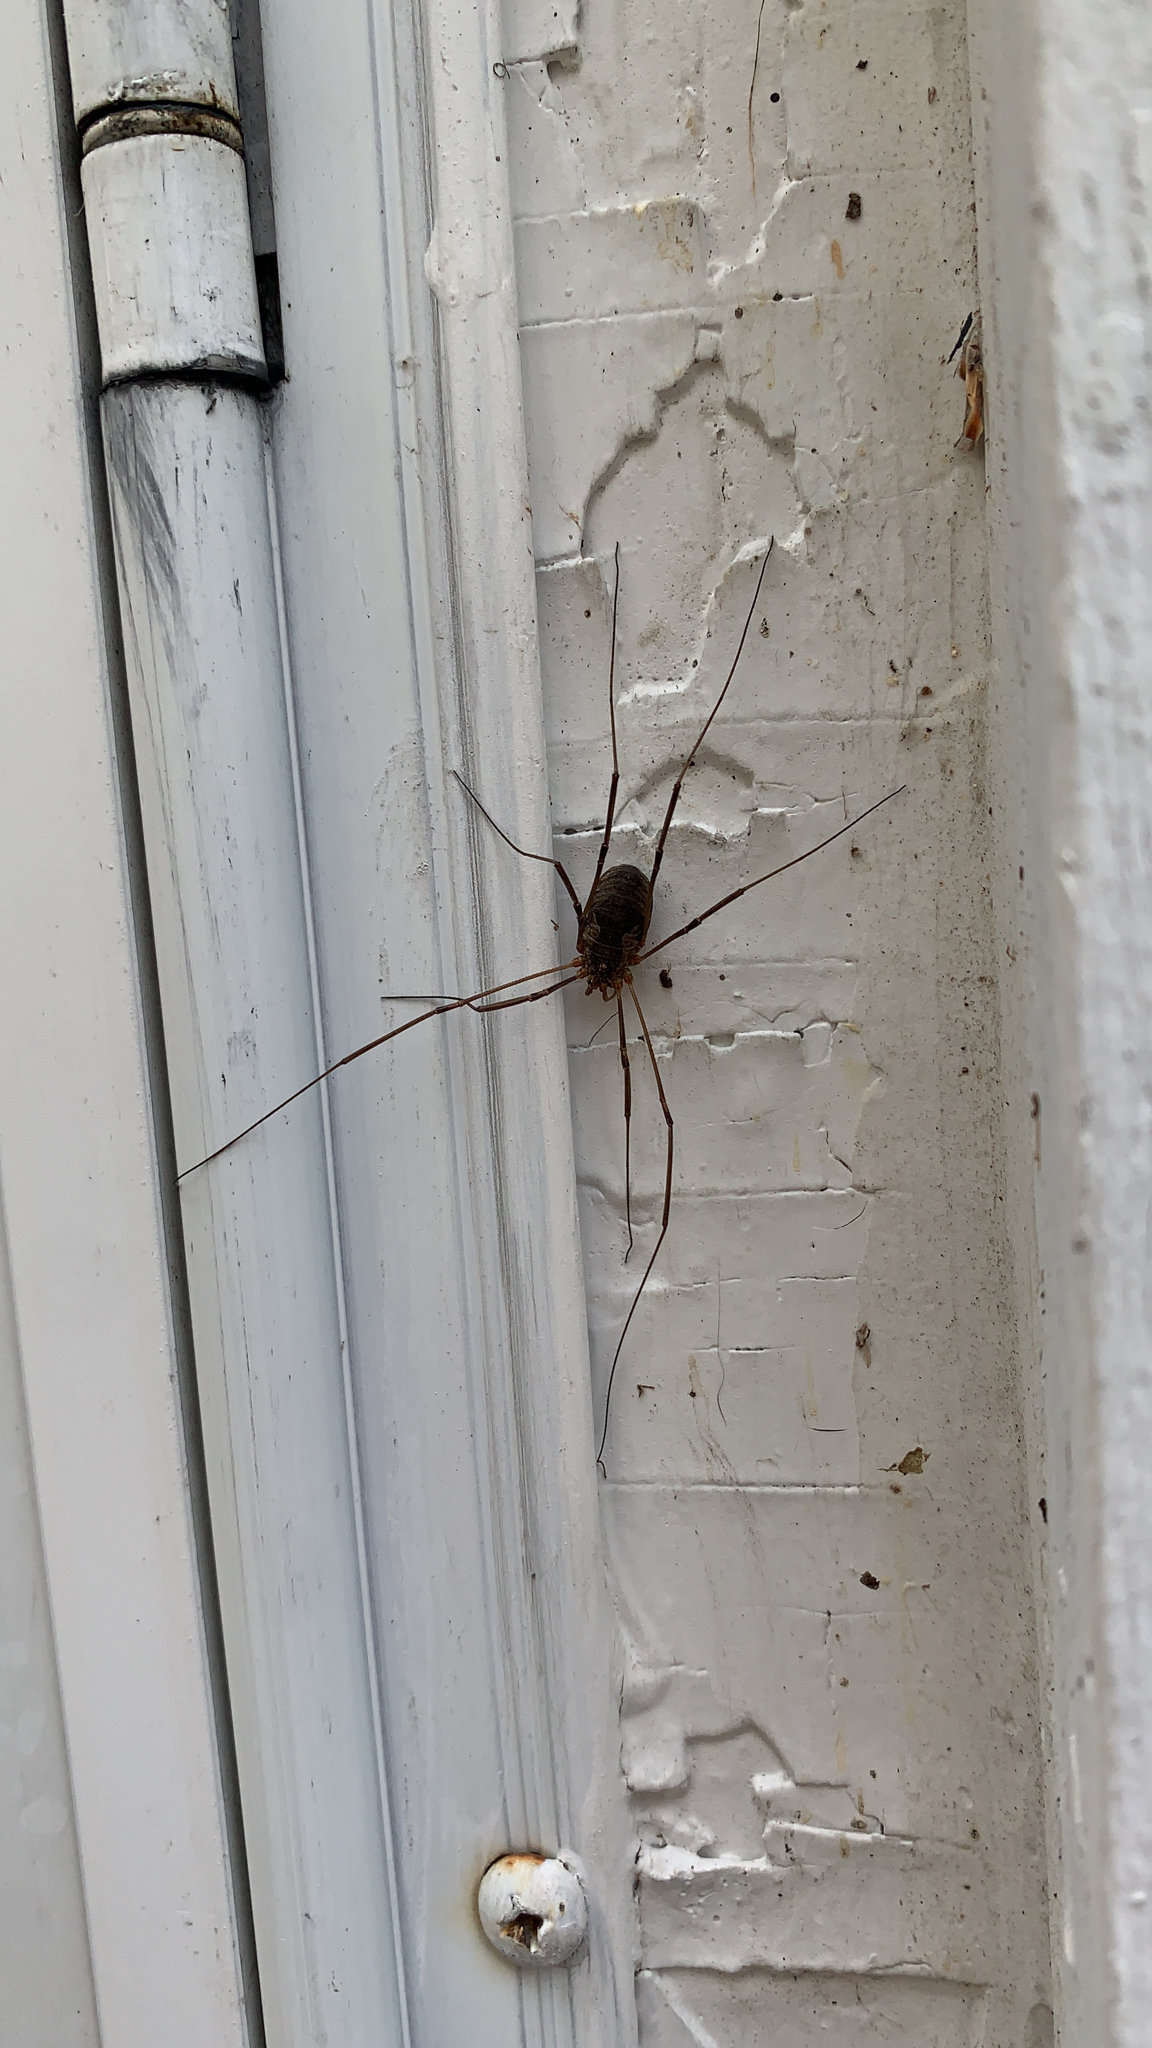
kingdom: Animalia
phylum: Arthropoda
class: Arachnida
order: Opiliones
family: Phalangiidae
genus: Phalangium
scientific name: Phalangium opilio
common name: Daddy longleg
